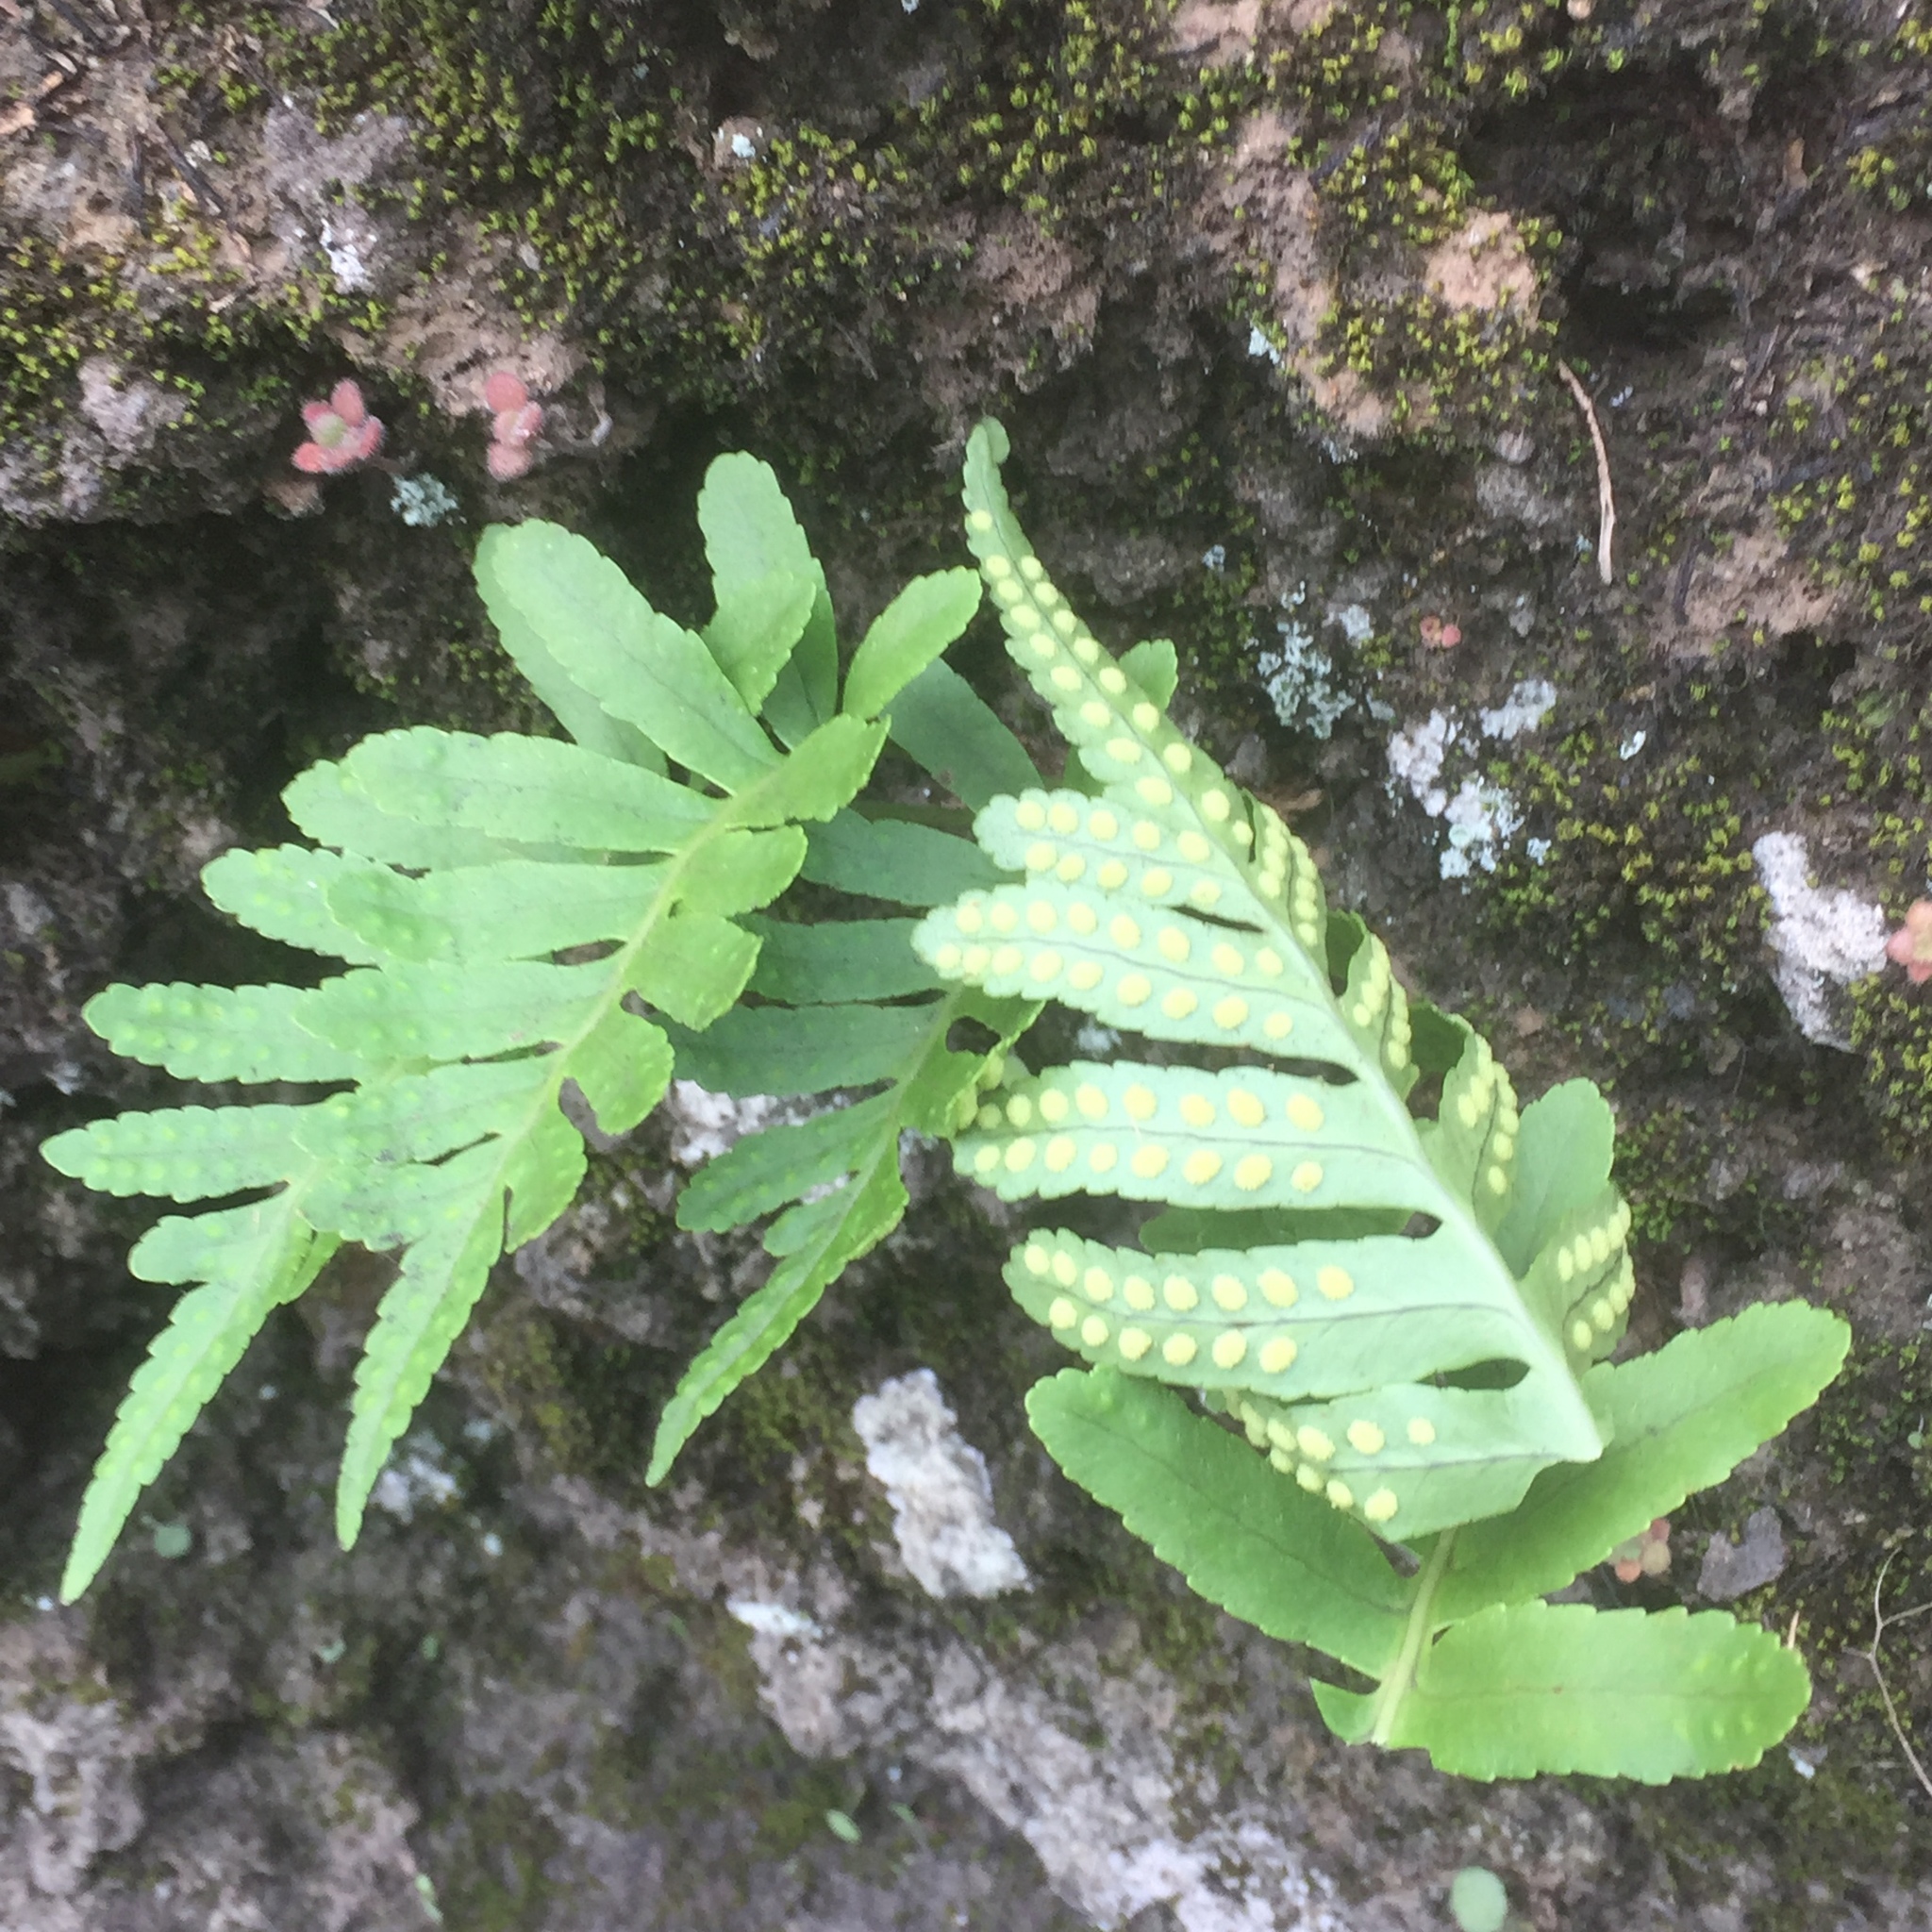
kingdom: Plantae
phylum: Tracheophyta
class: Polypodiopsida
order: Polypodiales
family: Polypodiaceae
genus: Polypodium
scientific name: Polypodium macaronesicum
